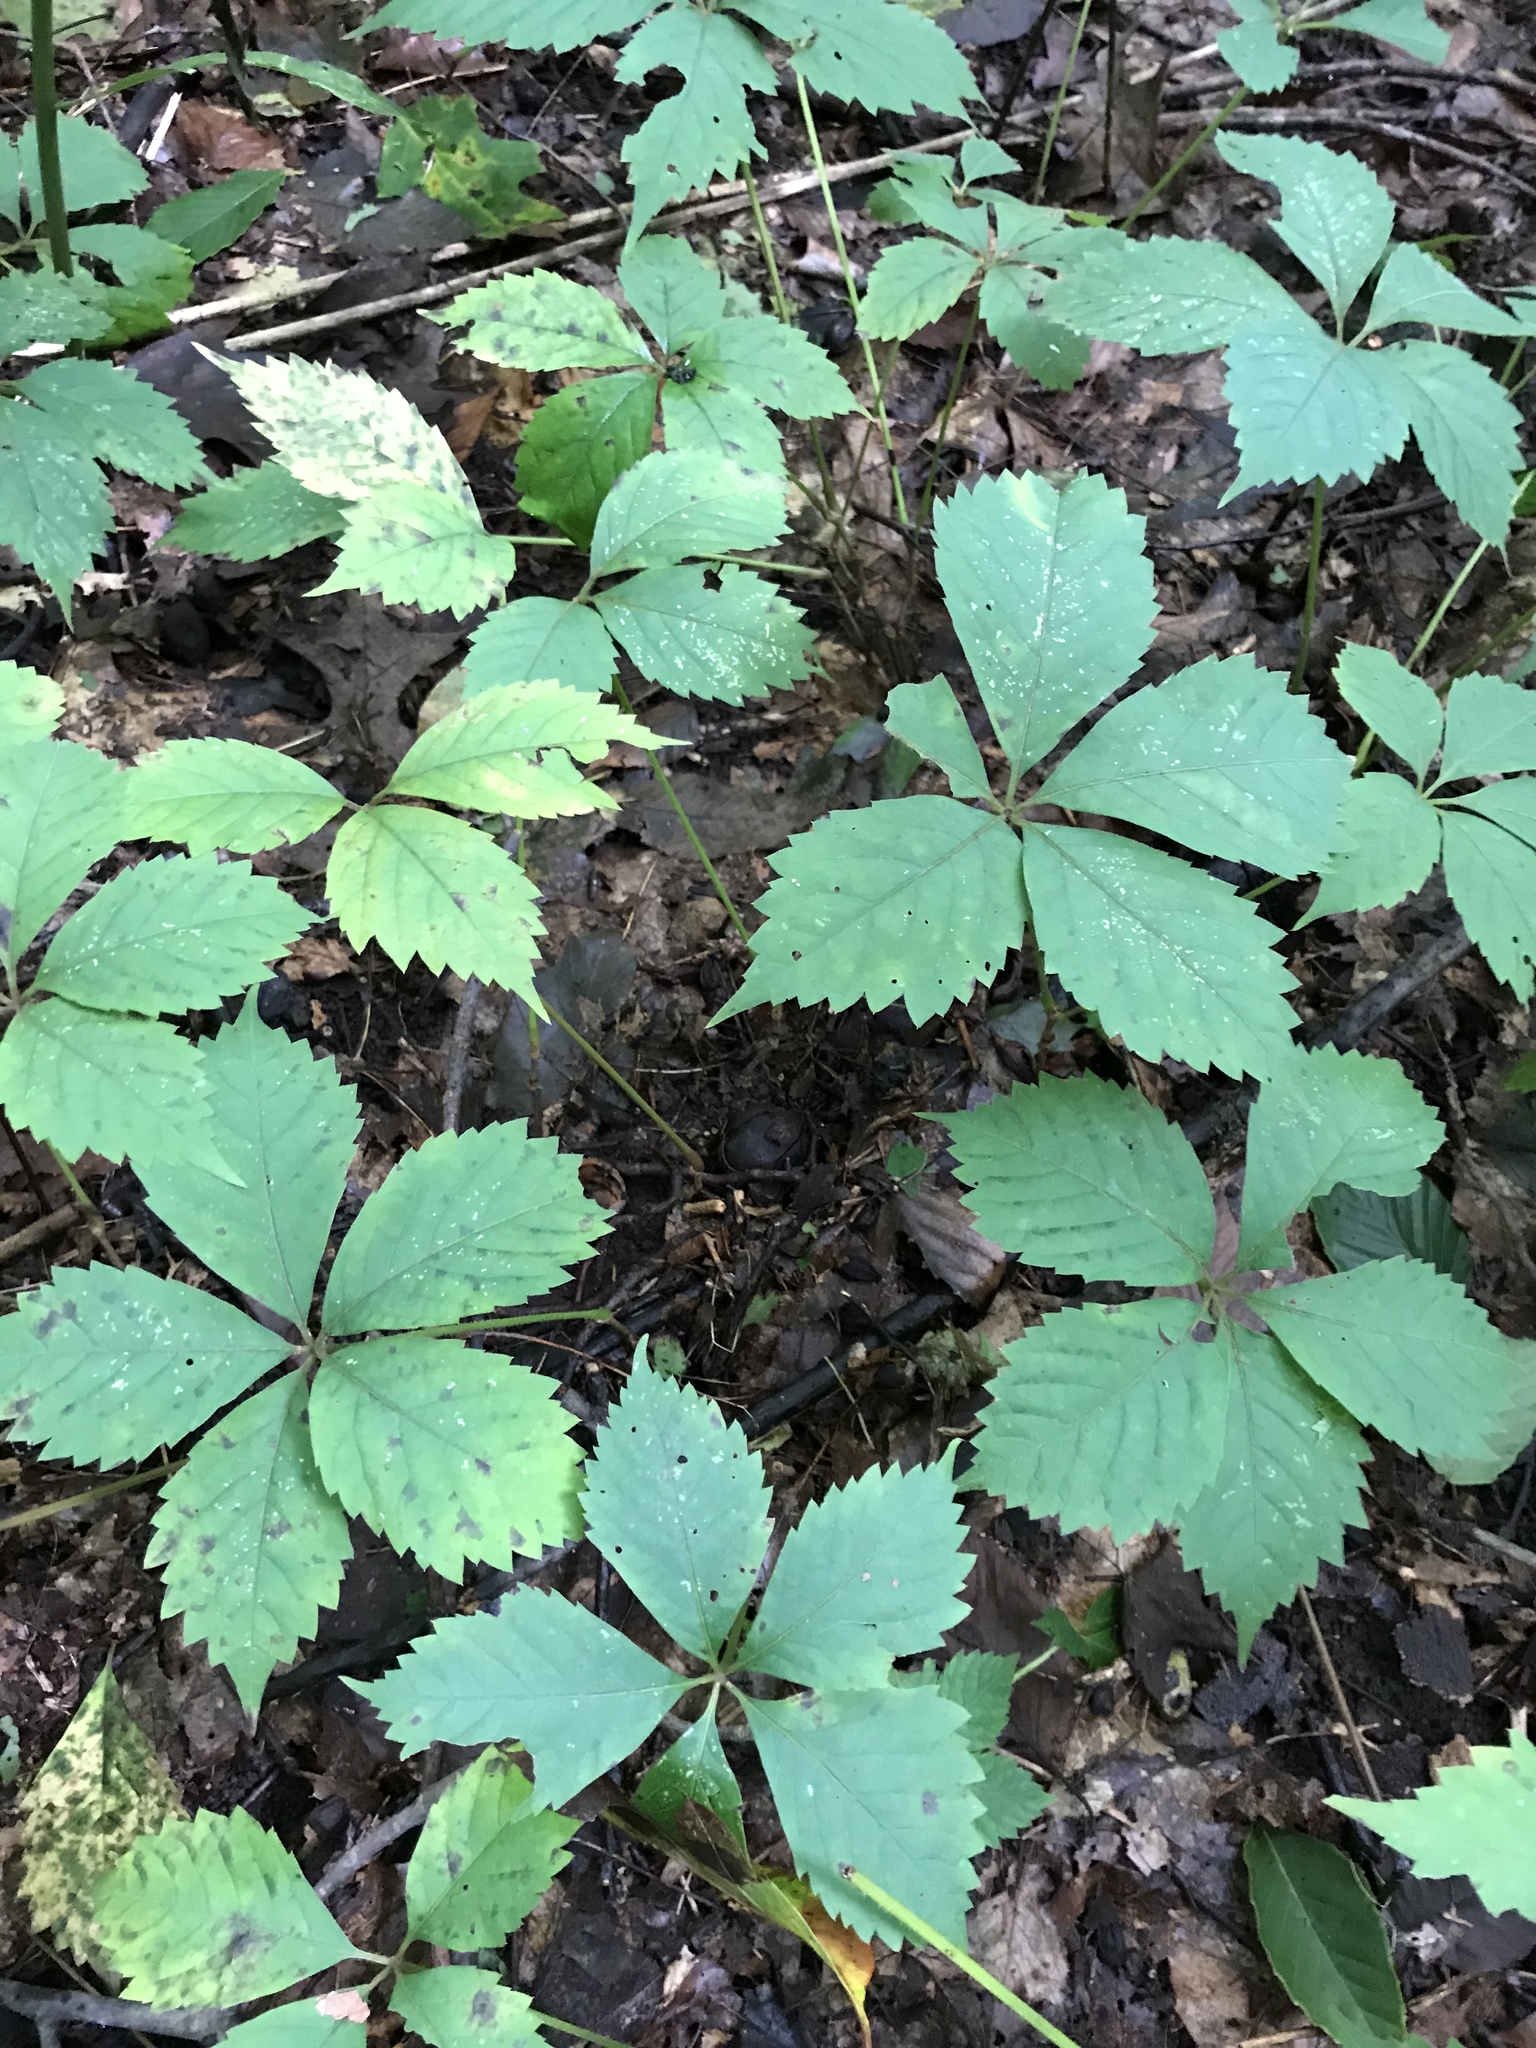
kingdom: Plantae
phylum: Tracheophyta
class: Magnoliopsida
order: Vitales
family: Vitaceae
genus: Parthenocissus
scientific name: Parthenocissus quinquefolia
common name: Virginia-creeper
